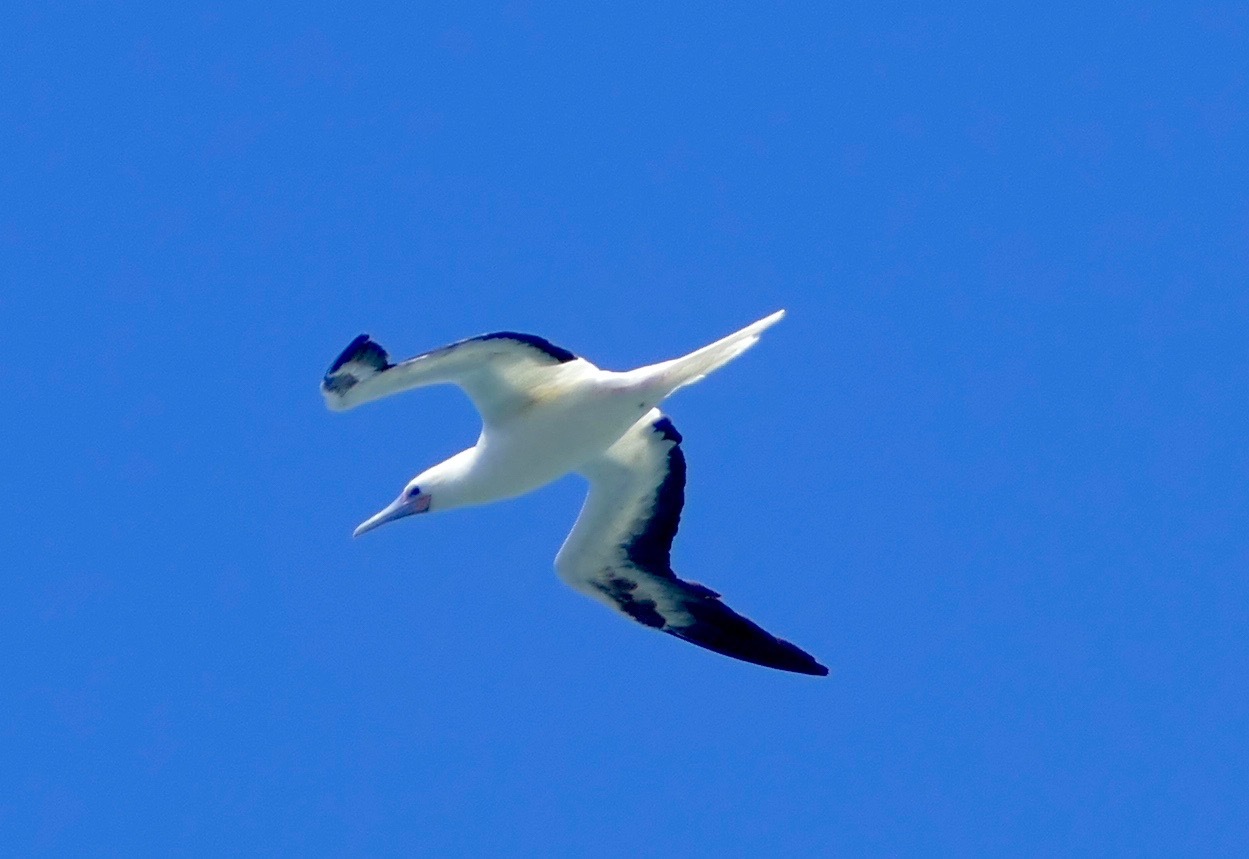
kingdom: Animalia
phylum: Chordata
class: Aves
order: Suliformes
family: Sulidae
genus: Sula
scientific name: Sula sula
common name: Red-footed booby
